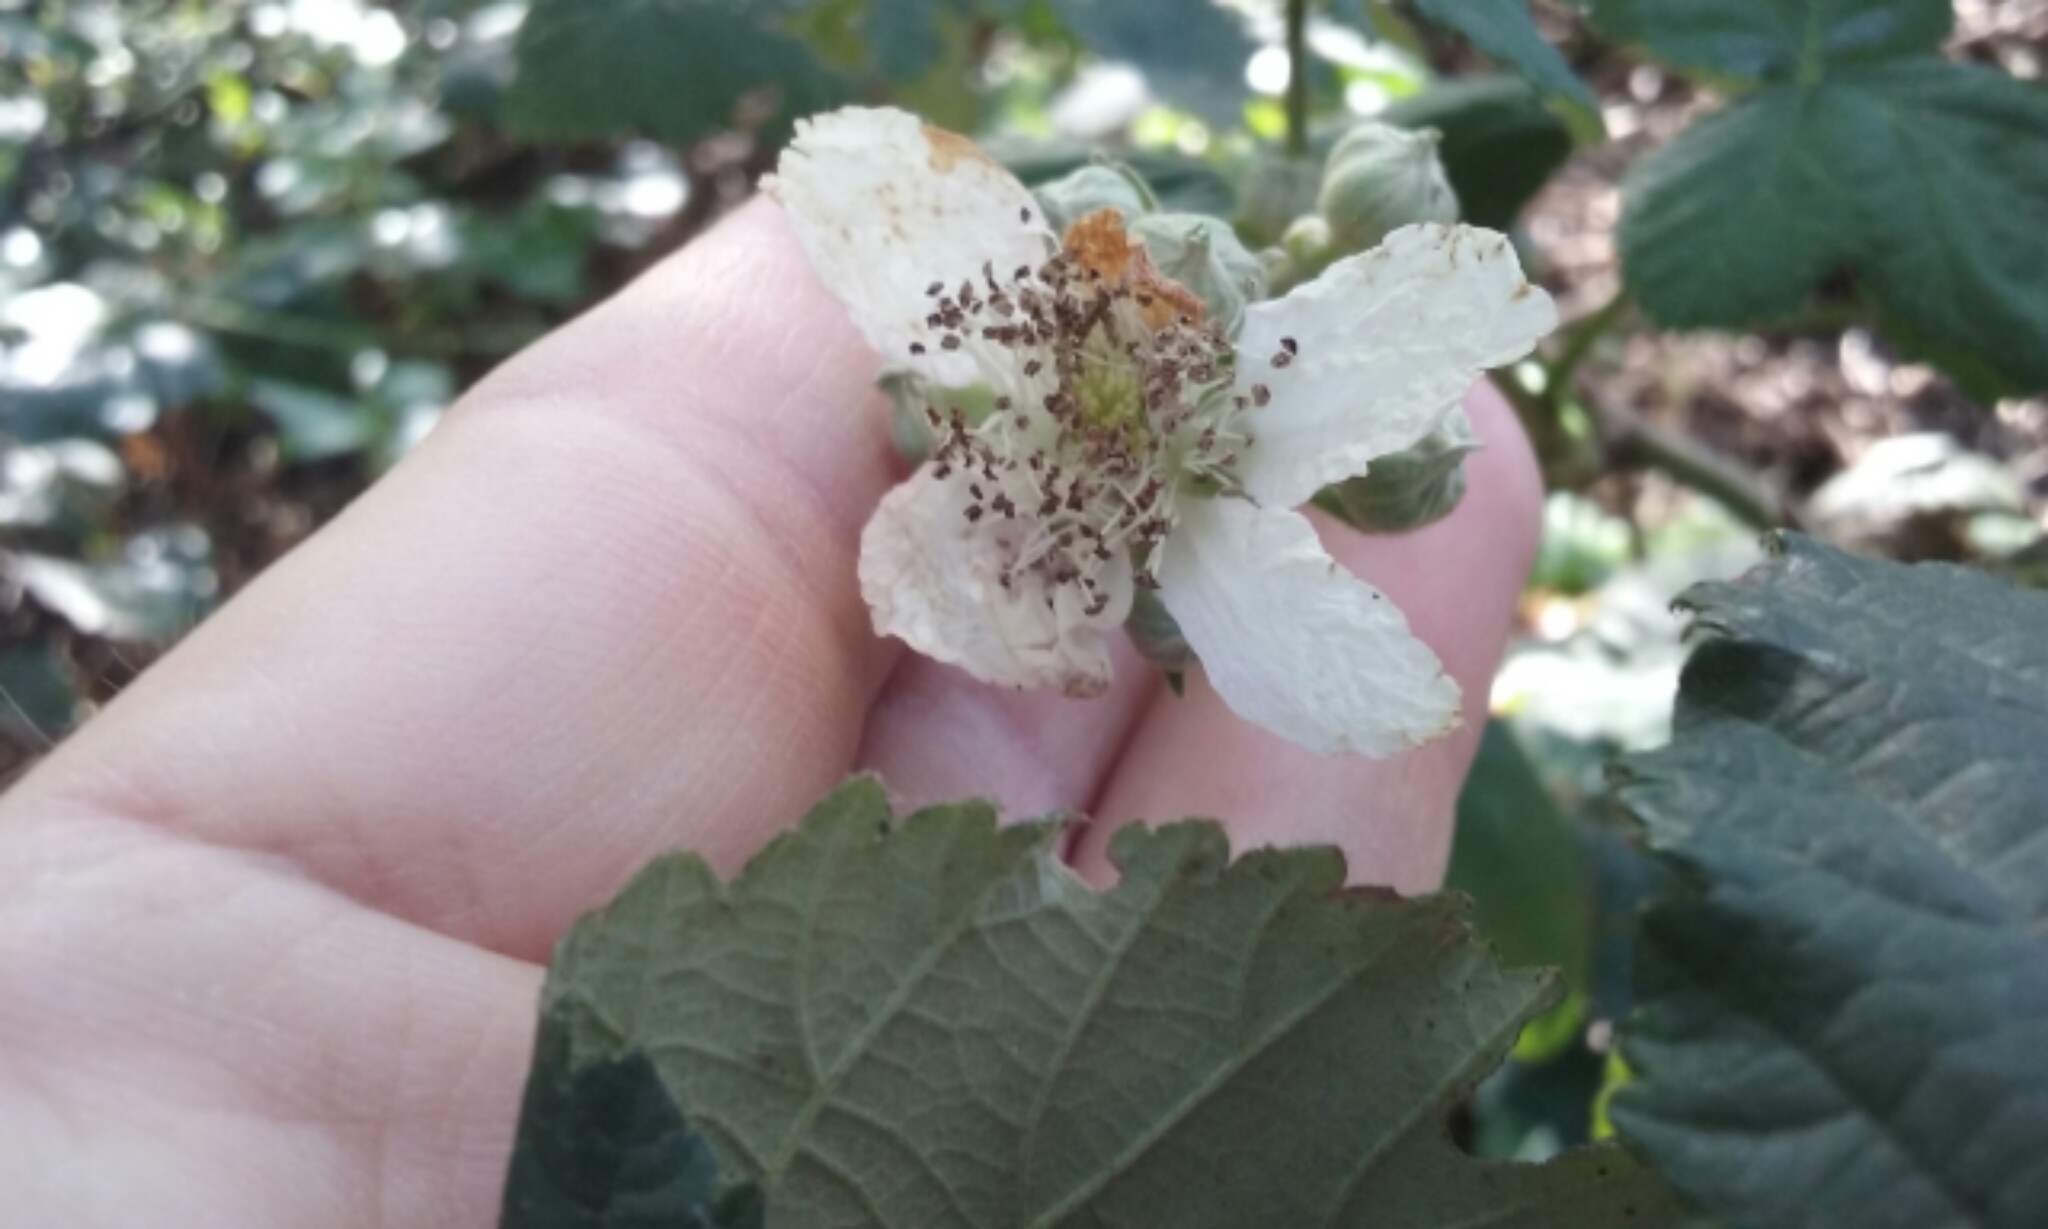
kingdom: Plantae
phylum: Tracheophyta
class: Magnoliopsida
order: Rosales
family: Rosaceae
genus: Rubus
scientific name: Rubus armeniacus
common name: Himalayan blackberry
